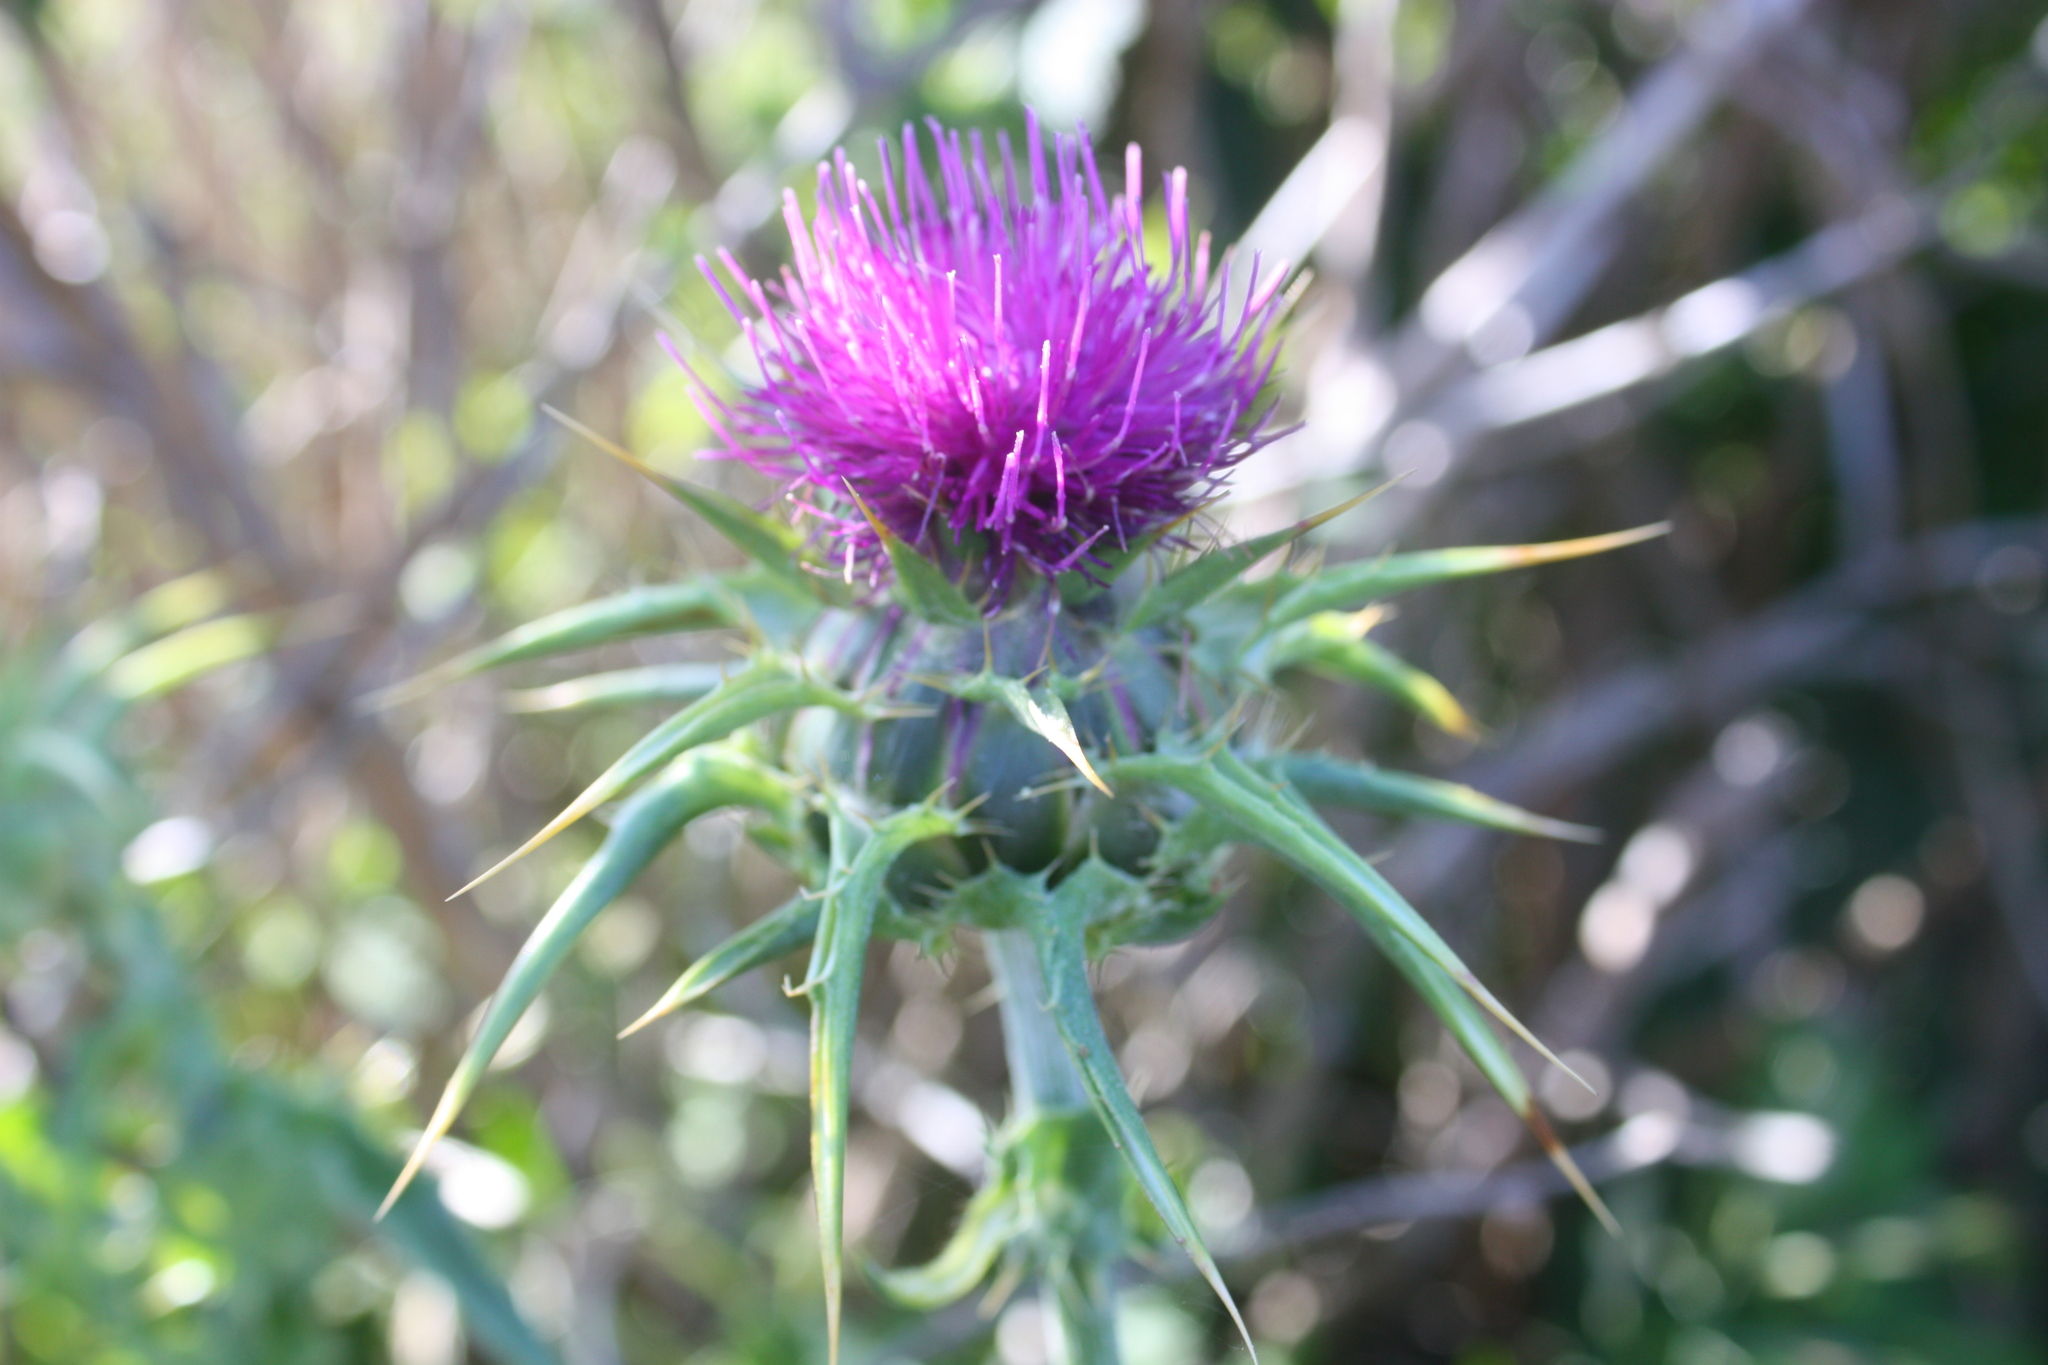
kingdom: Plantae
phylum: Tracheophyta
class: Magnoliopsida
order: Asterales
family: Asteraceae
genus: Silybum
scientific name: Silybum marianum
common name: Milk thistle
